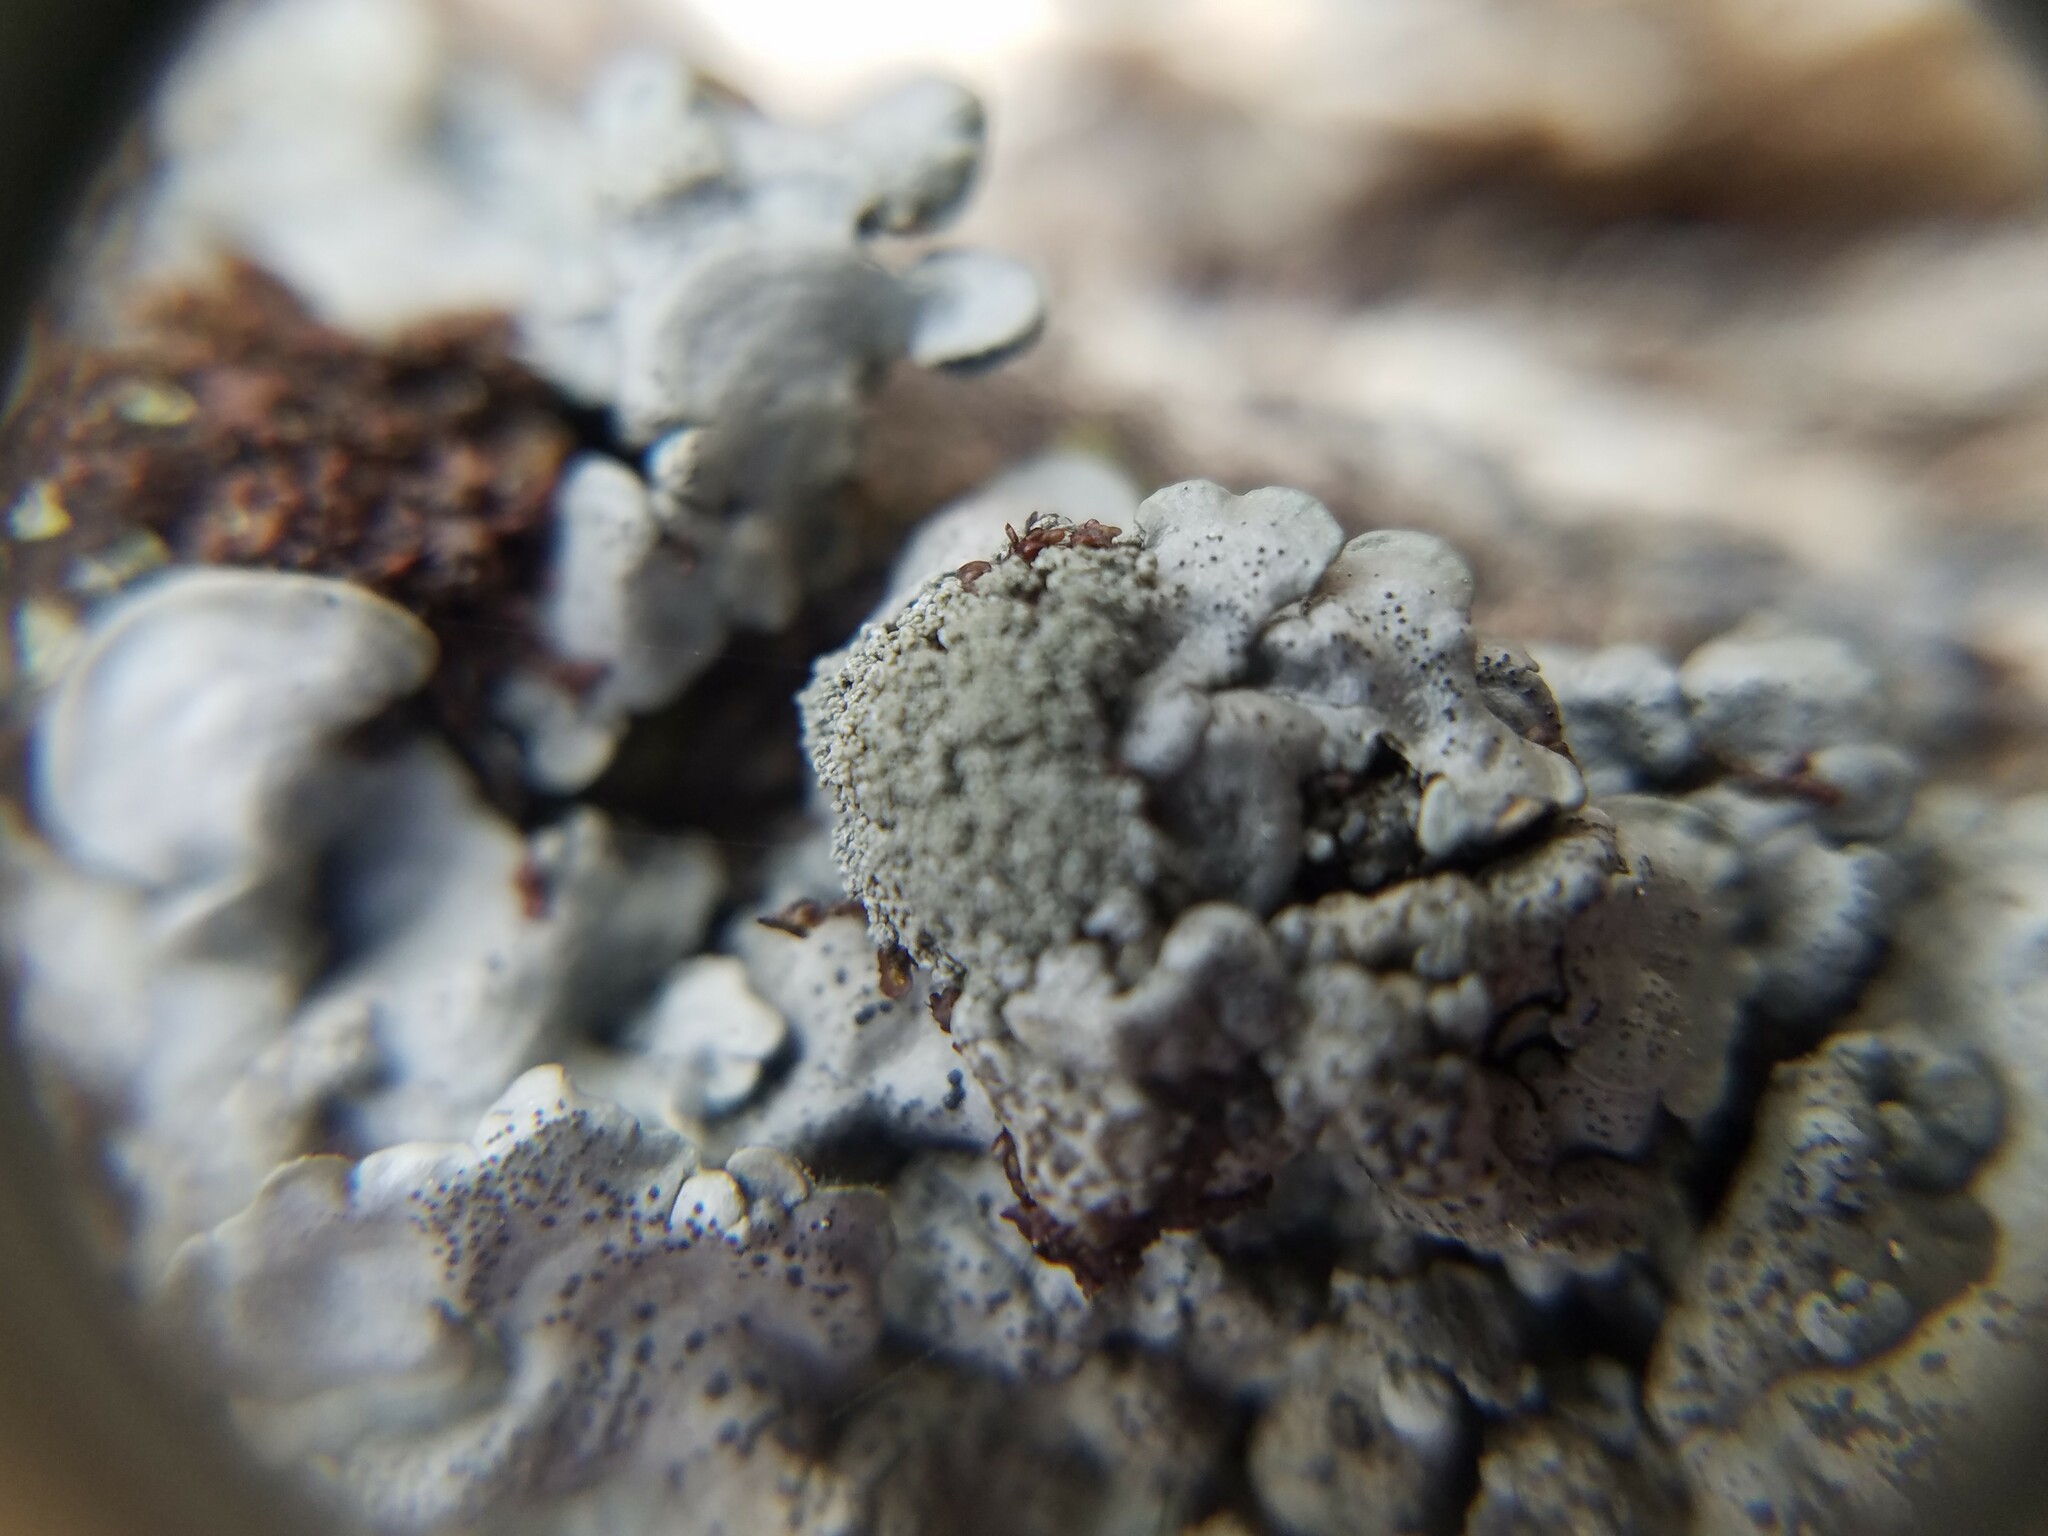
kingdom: Fungi
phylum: Ascomycota
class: Lecanoromycetes
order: Peltigerales
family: Coccocarpiaceae
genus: Coccocarpia
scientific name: Coccocarpia erythroxyli
